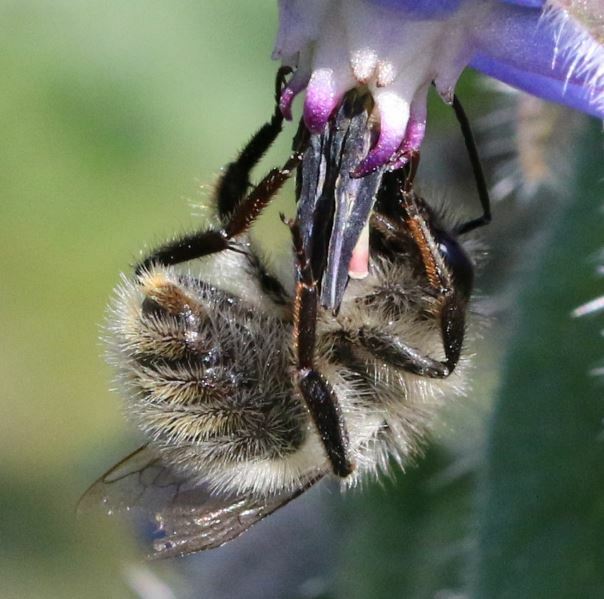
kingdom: Animalia
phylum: Arthropoda
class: Insecta
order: Hymenoptera
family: Apidae
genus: Bombus
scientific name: Bombus sylvarum
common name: Shrill carder bee
